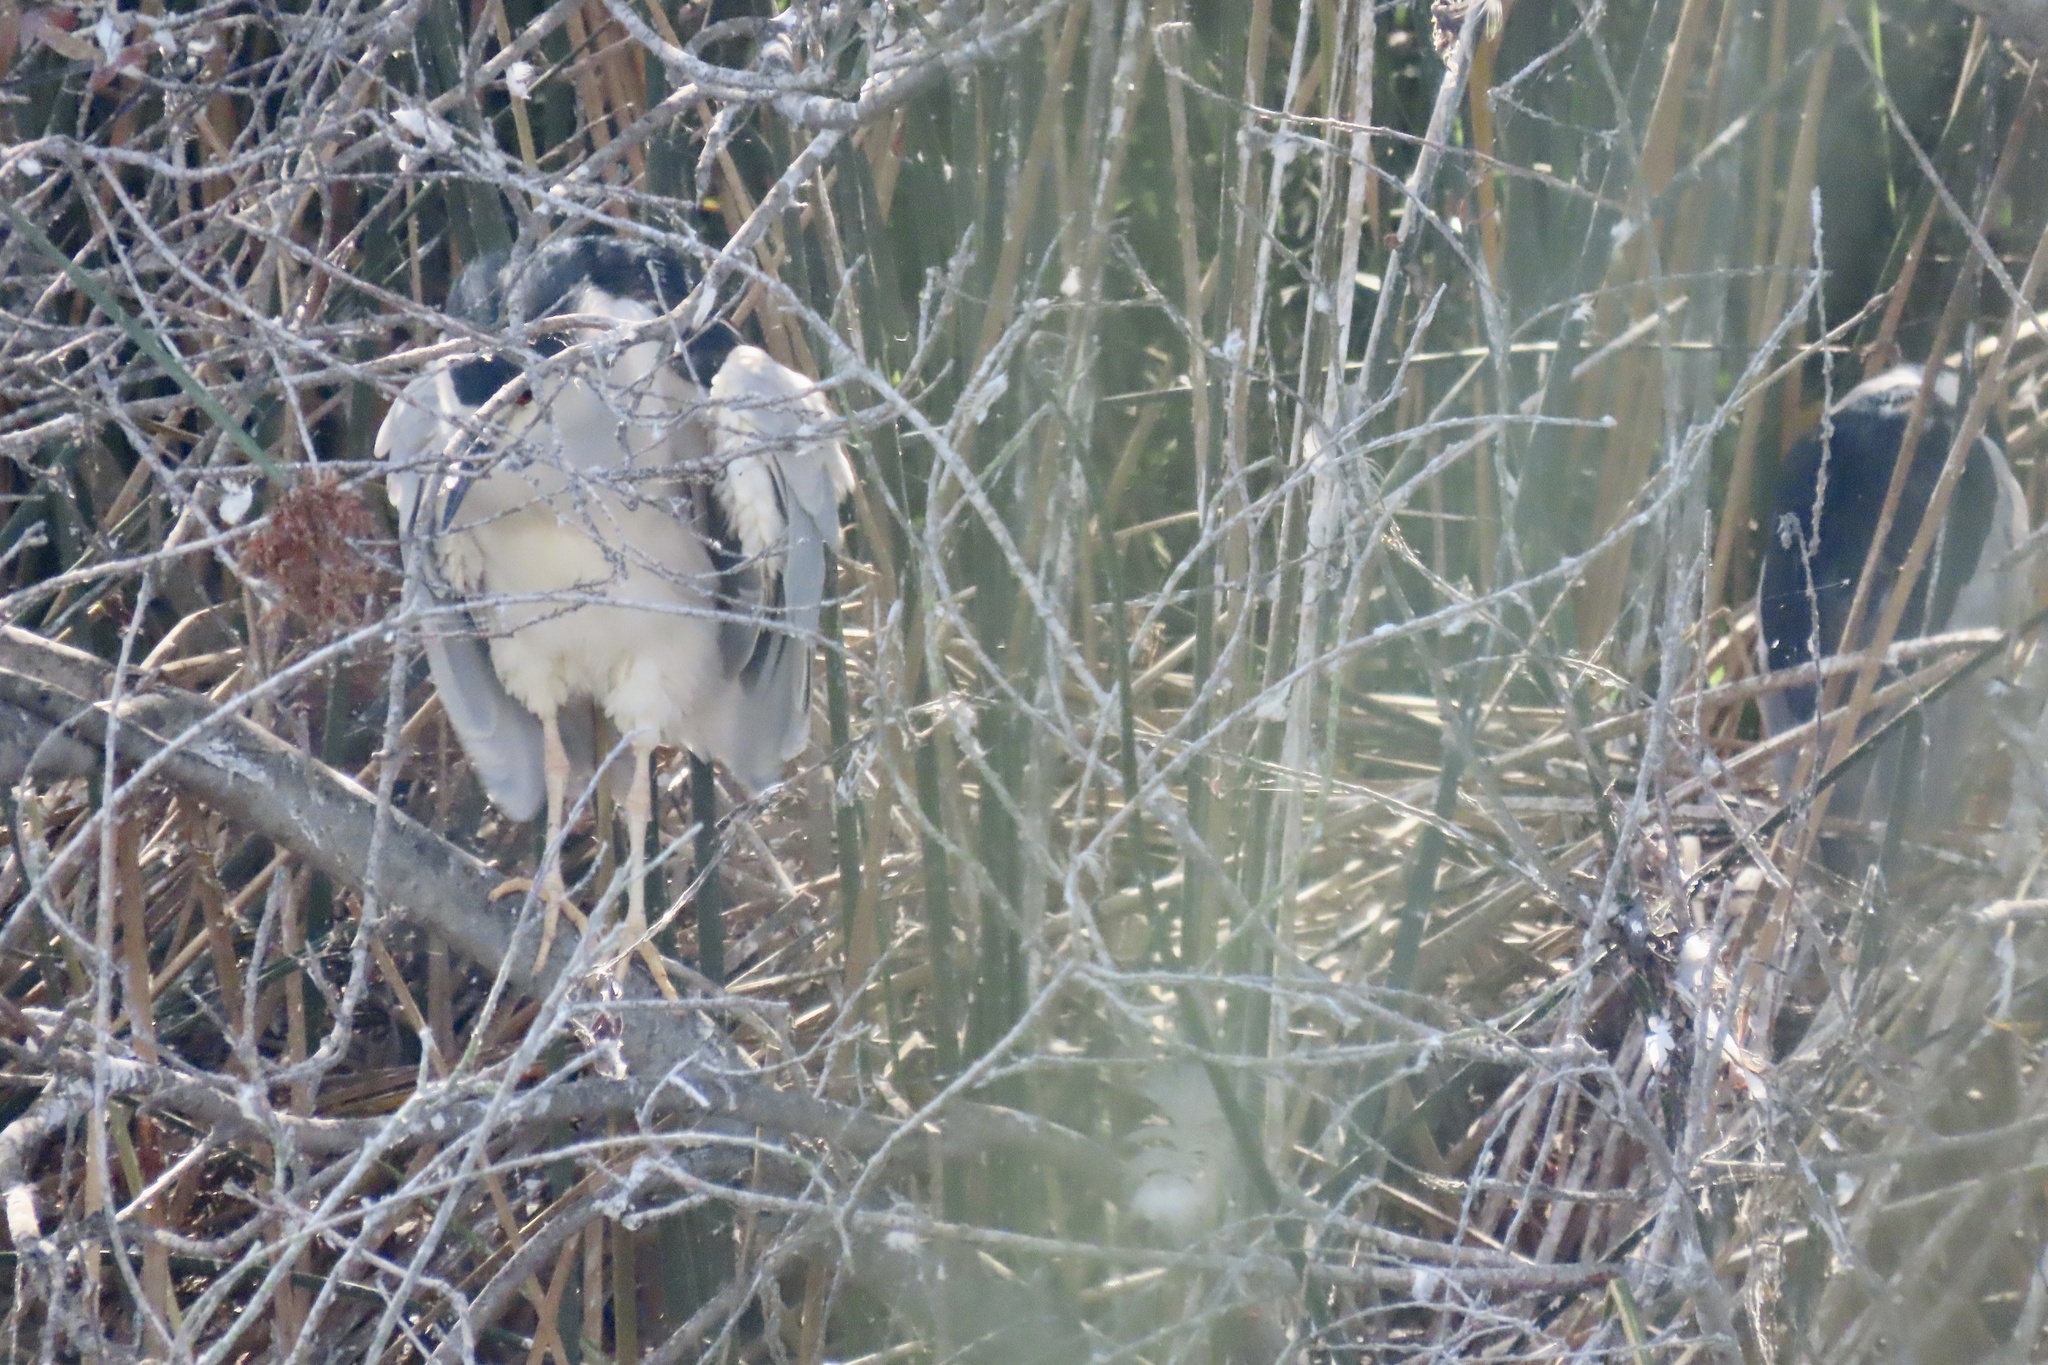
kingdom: Animalia
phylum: Chordata
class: Aves
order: Pelecaniformes
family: Ardeidae
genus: Nycticorax
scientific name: Nycticorax nycticorax
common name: Black-crowned night heron
